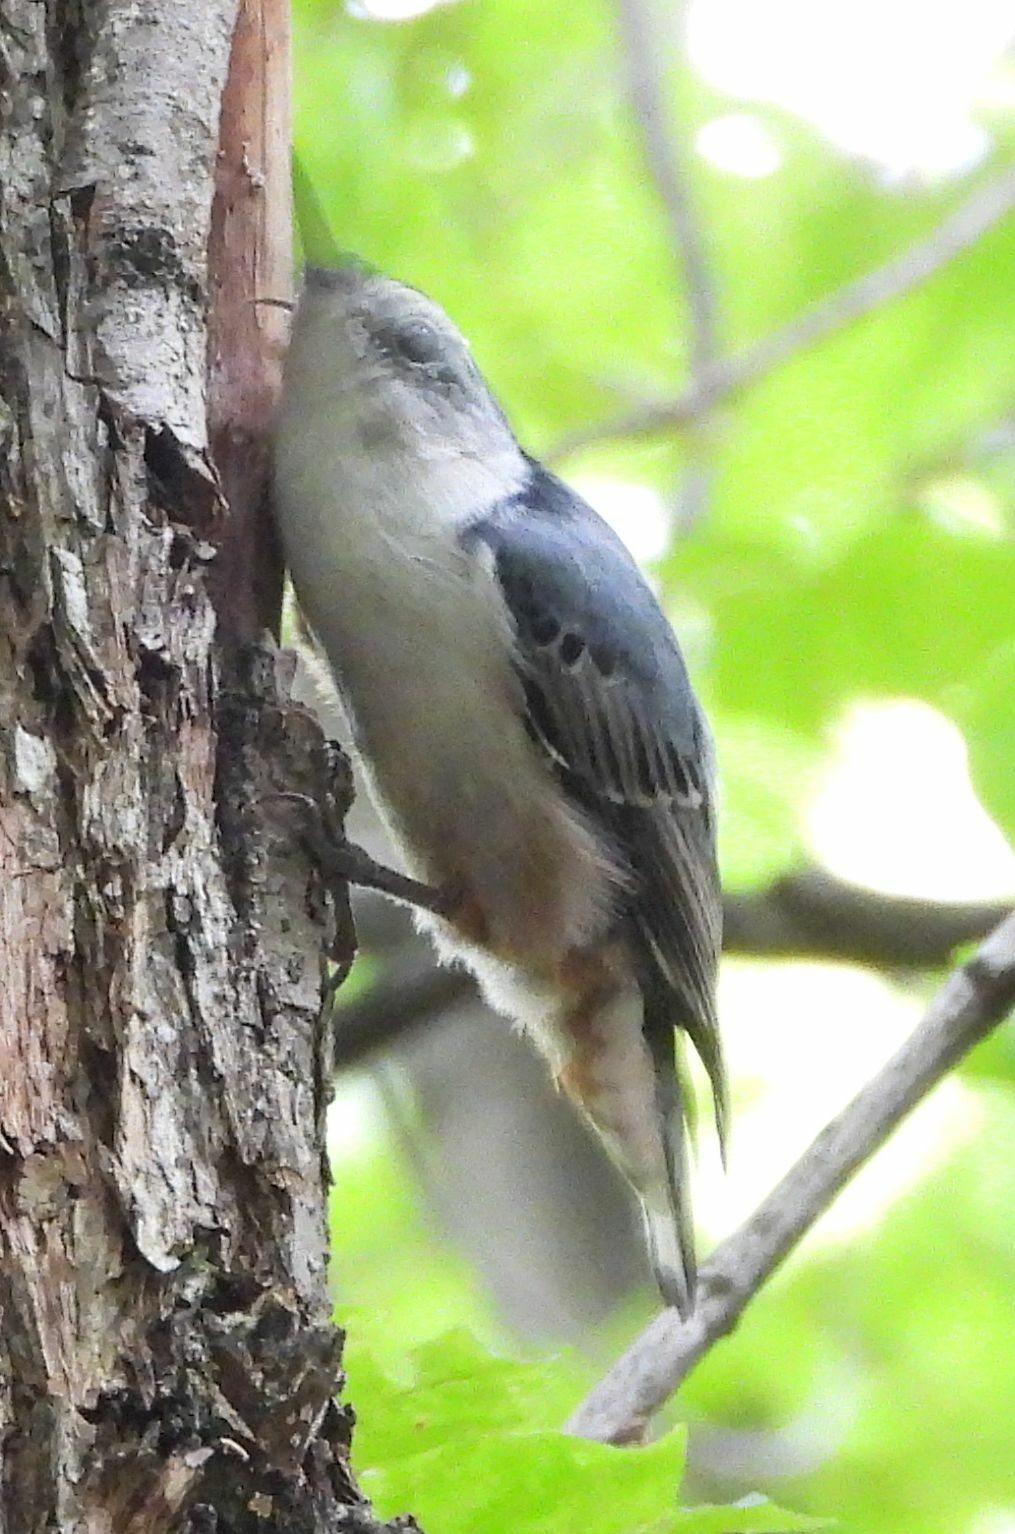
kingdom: Animalia
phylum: Chordata
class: Aves
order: Passeriformes
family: Sittidae
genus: Sitta
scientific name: Sitta carolinensis
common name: White-breasted nuthatch
